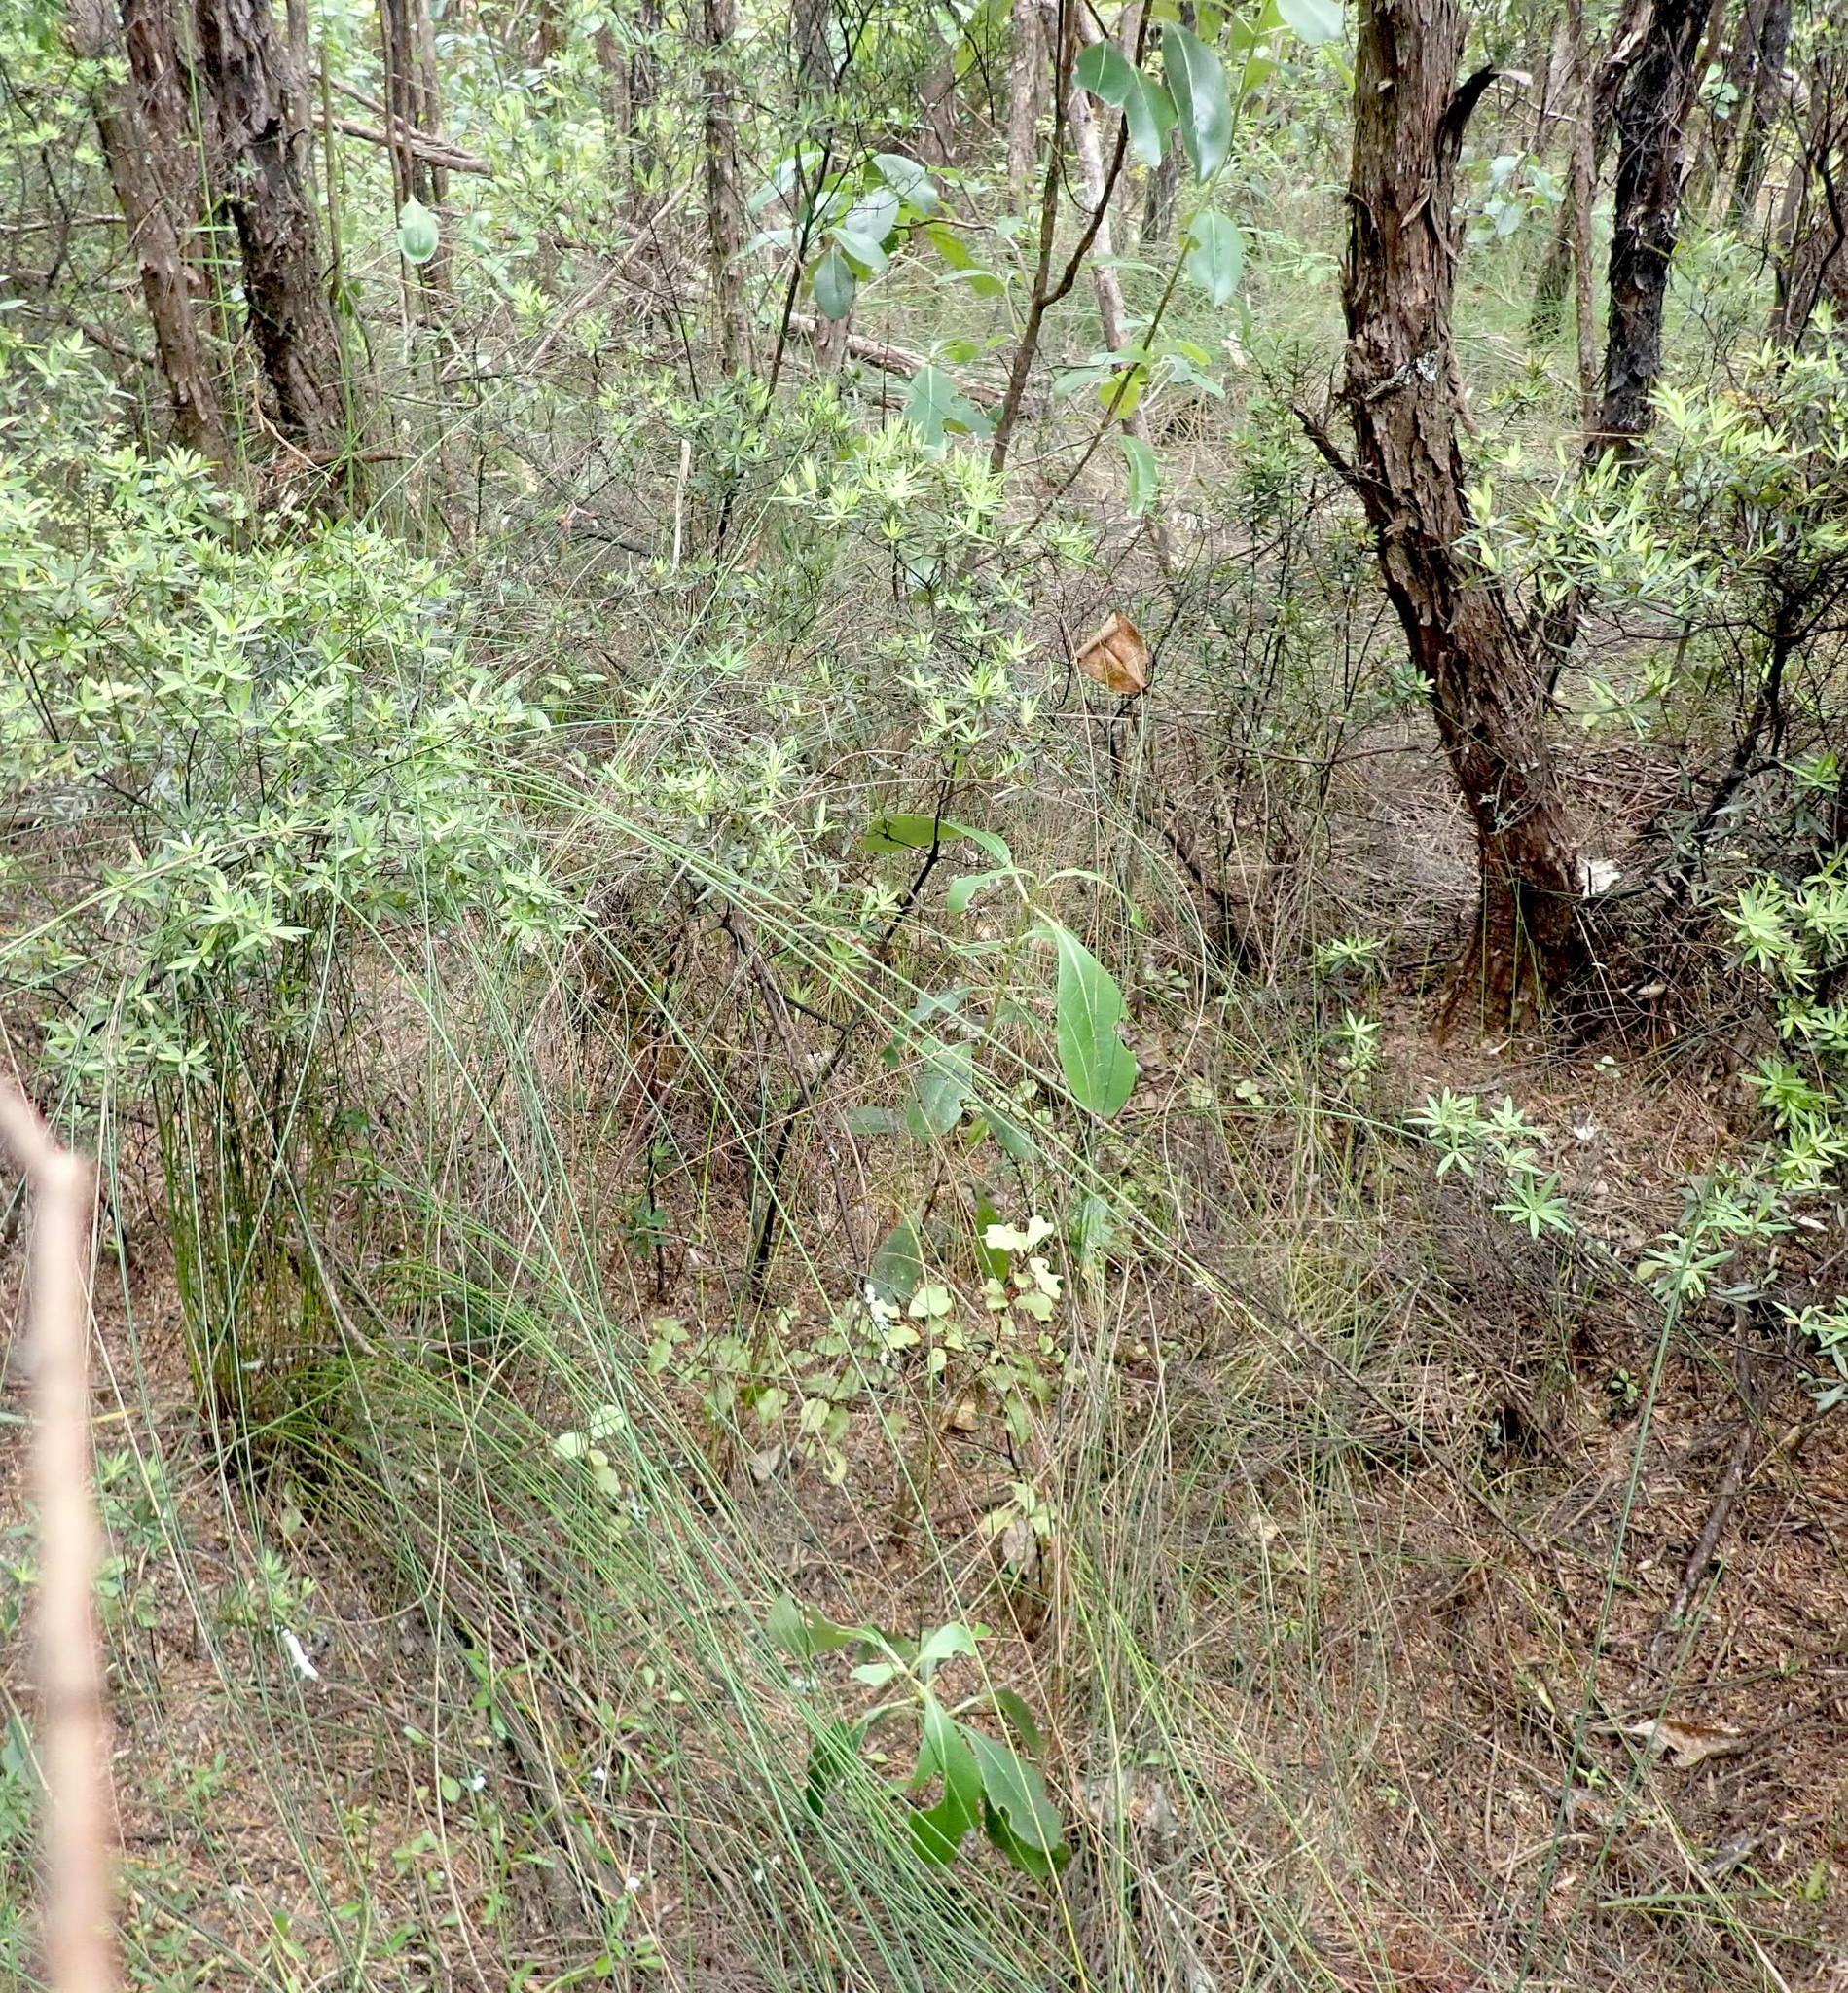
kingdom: Plantae
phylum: Tracheophyta
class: Magnoliopsida
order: Gentianales
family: Rubiaceae
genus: Coprosma
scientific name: Coprosma lucida
